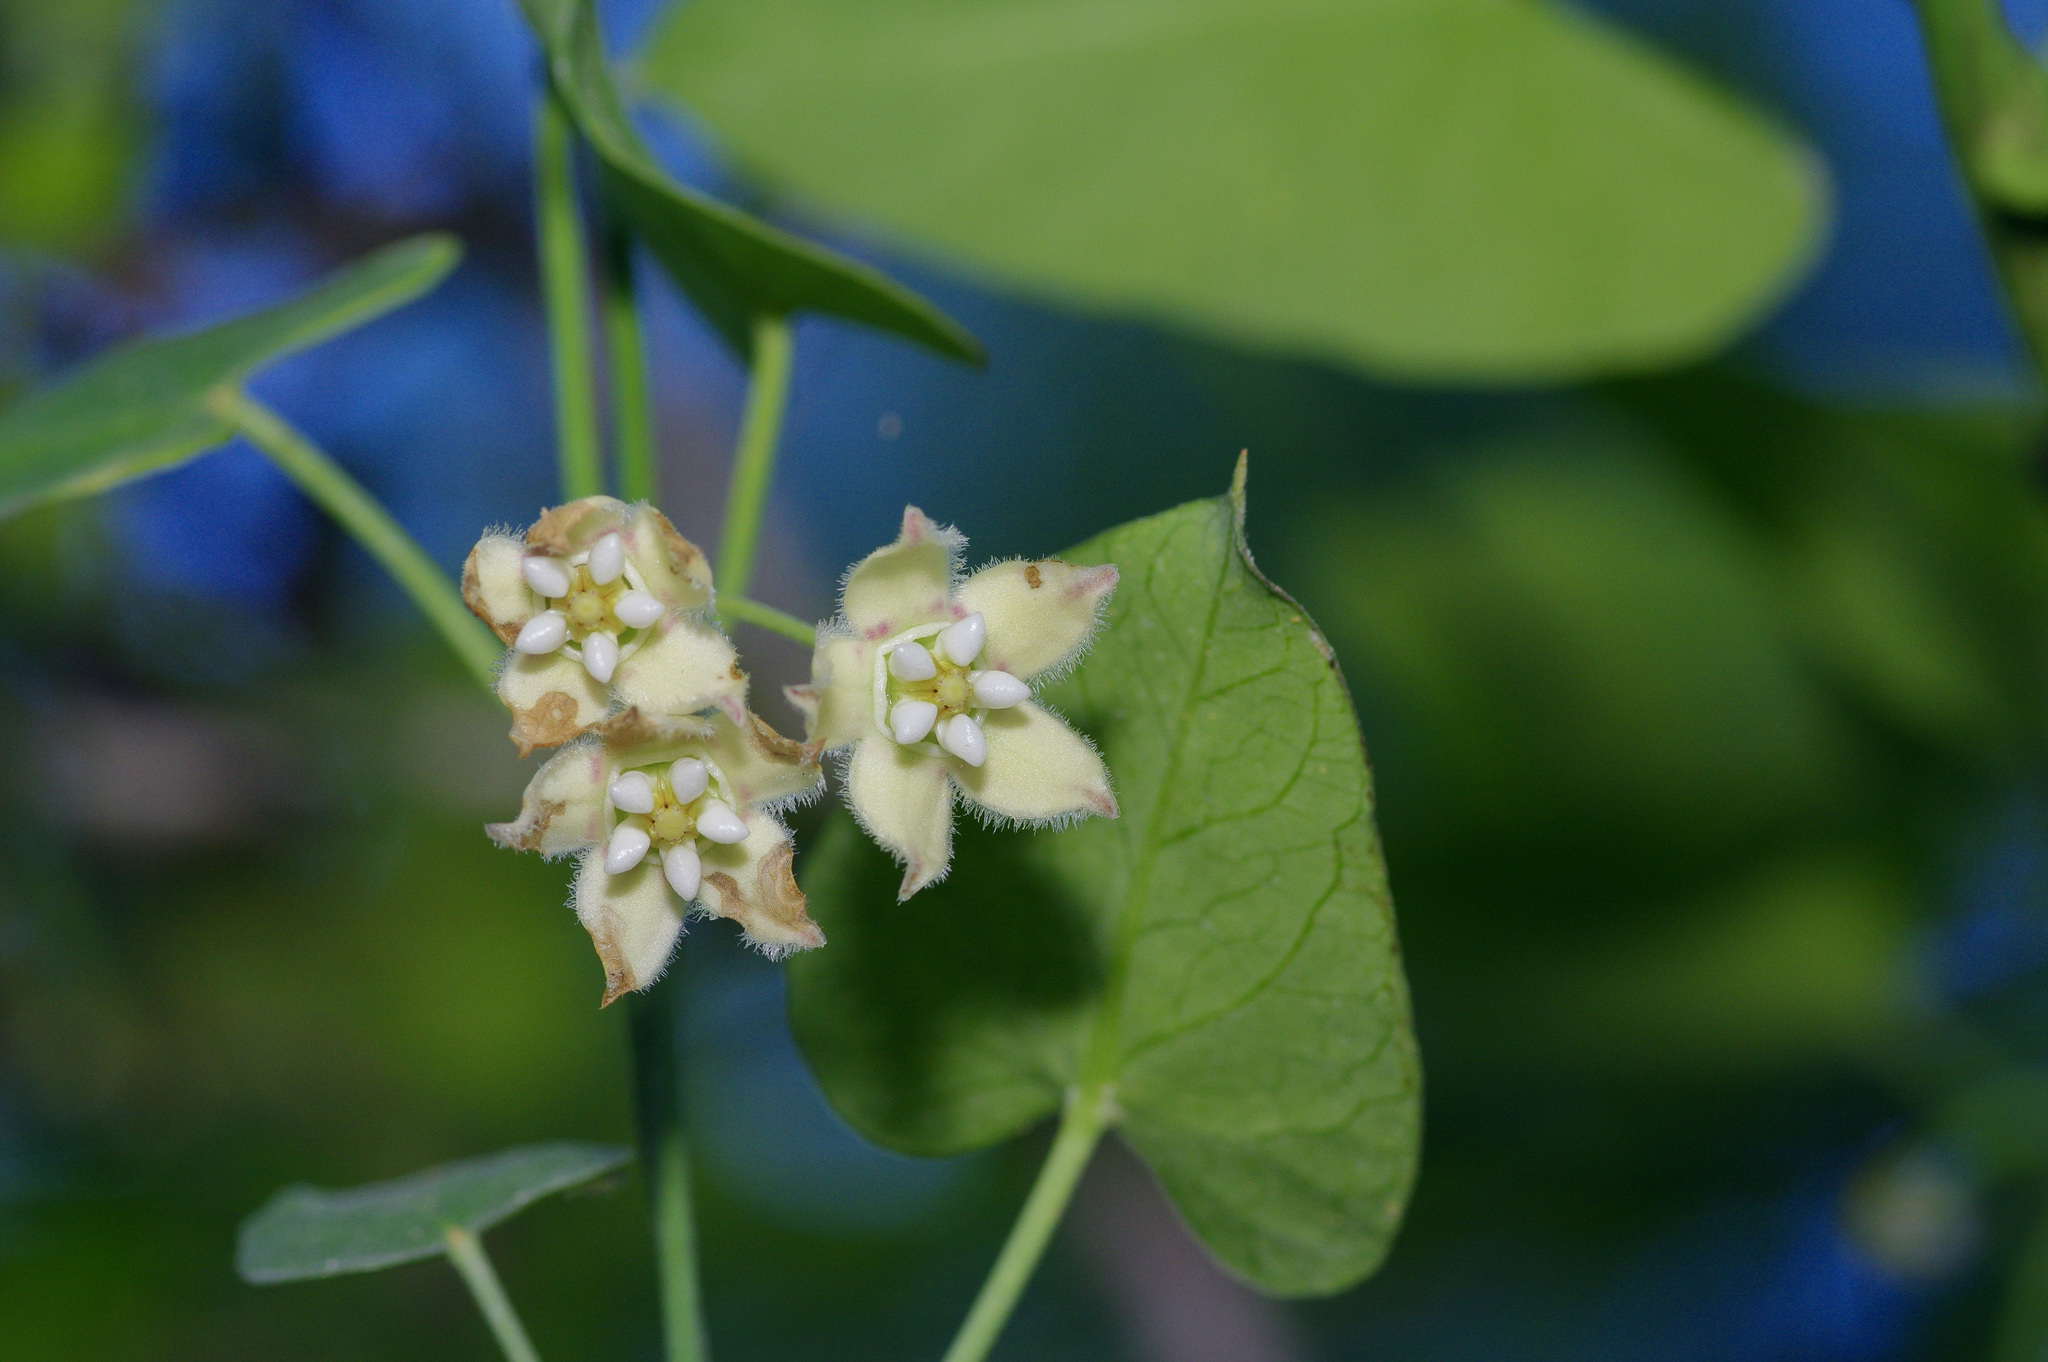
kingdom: Plantae
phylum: Tracheophyta
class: Magnoliopsida
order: Gentianales
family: Apocynaceae
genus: Funastrum
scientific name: Funastrum cynanchoides
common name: Climbing-milkweed
